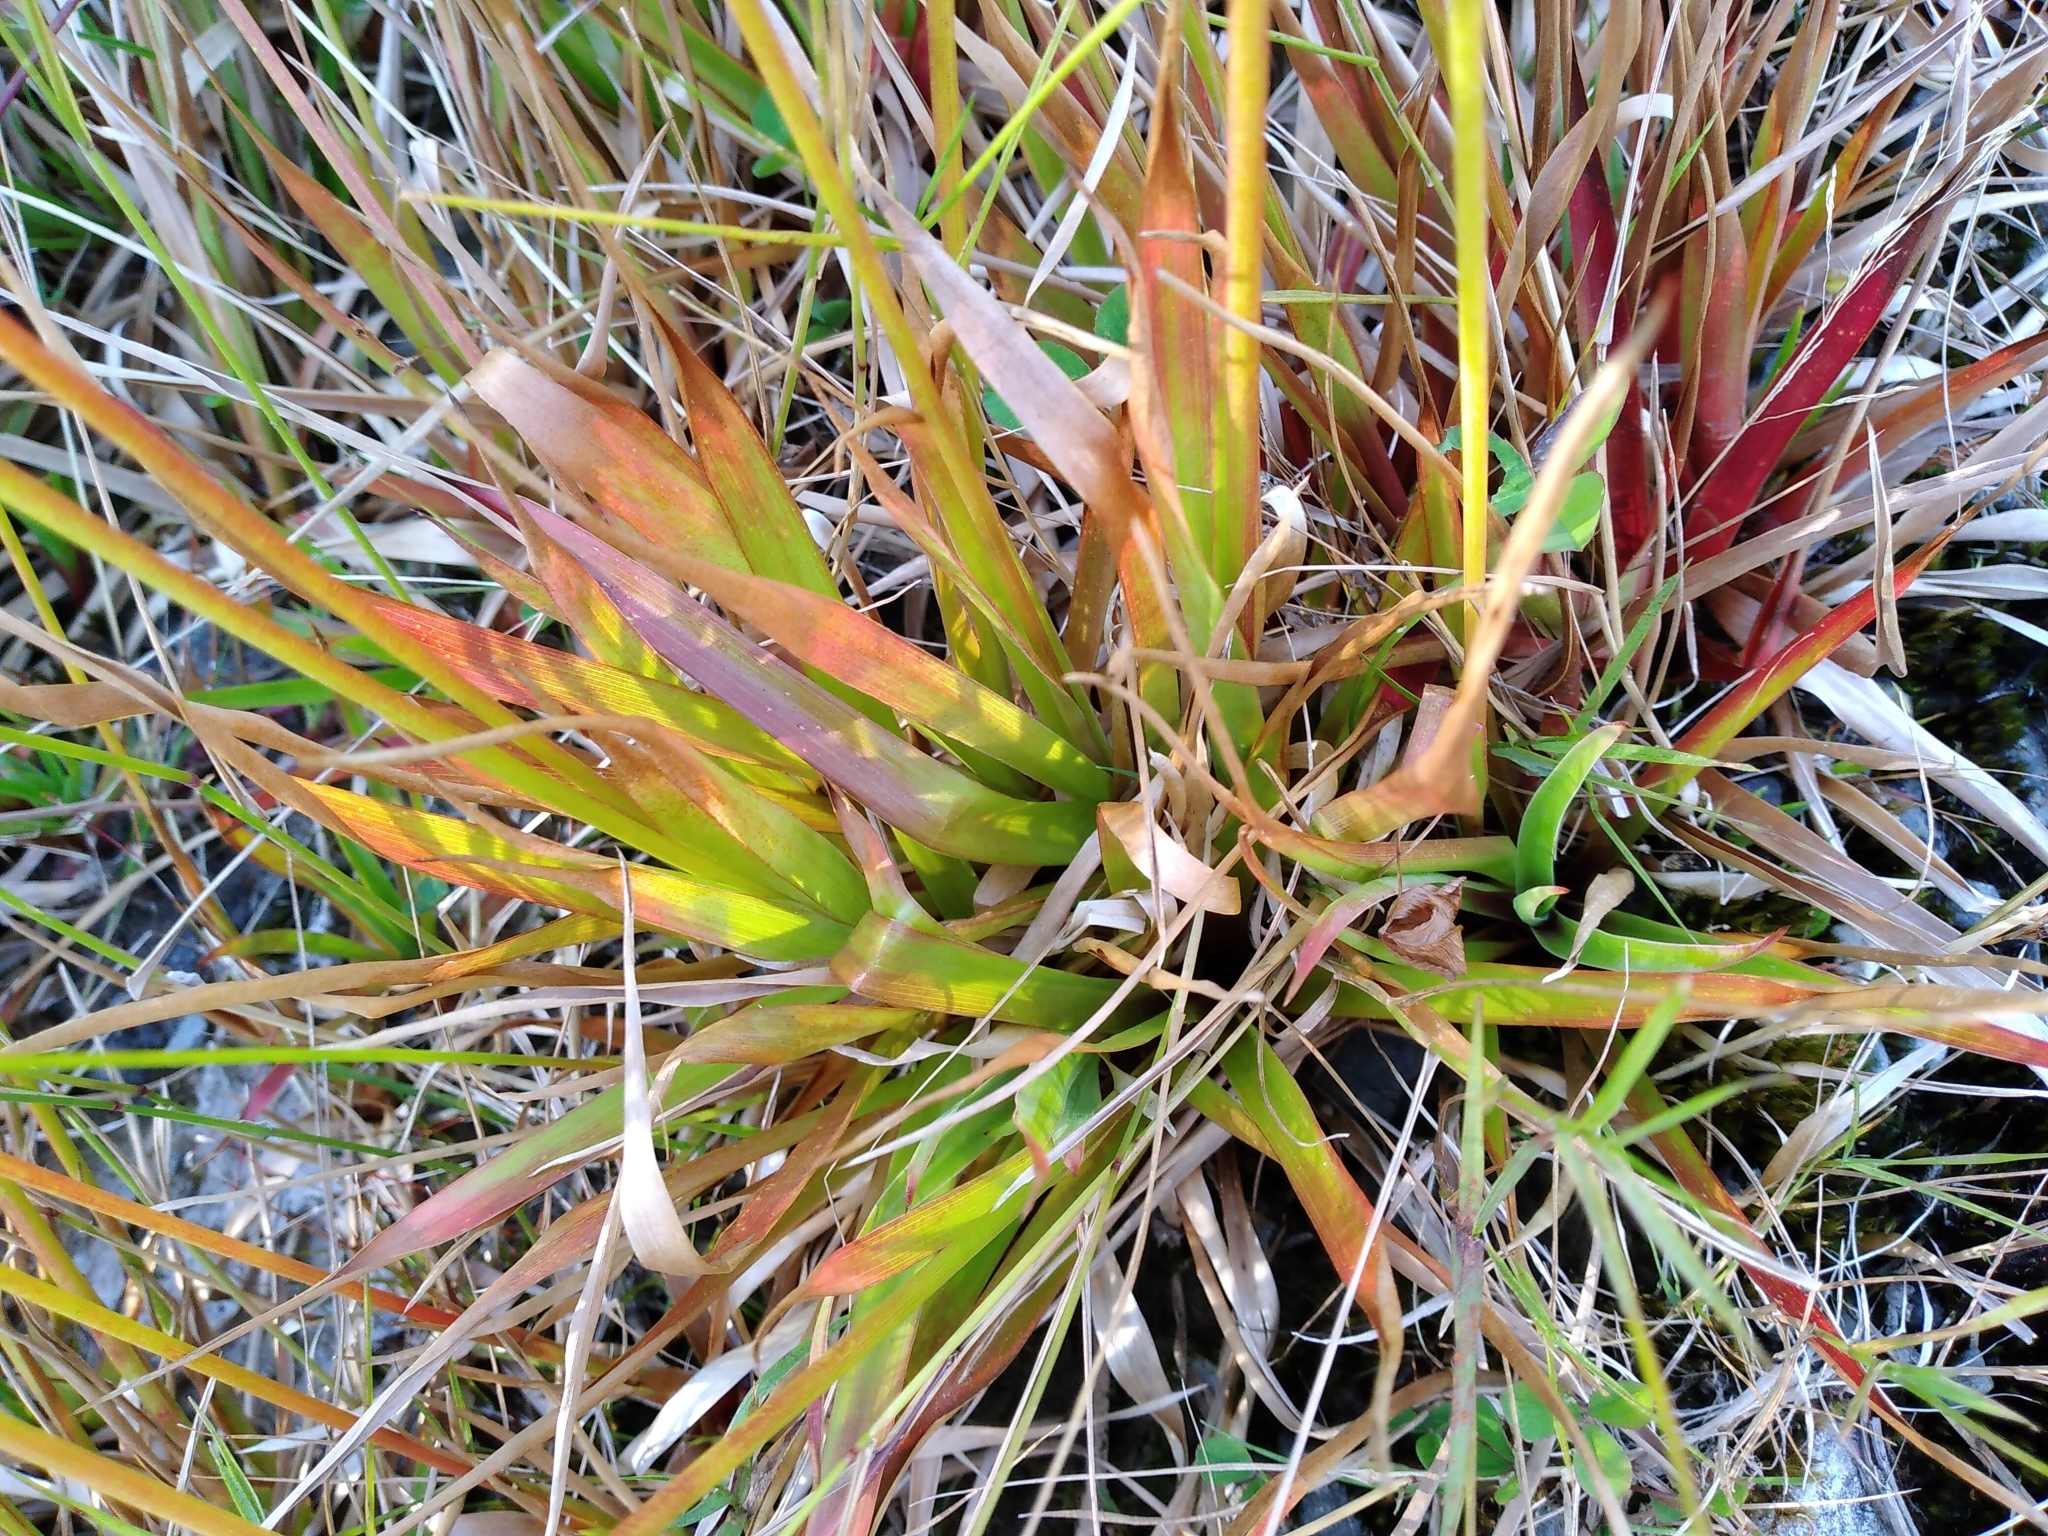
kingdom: Plantae
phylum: Tracheophyta
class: Liliopsida
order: Poales
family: Juncaceae
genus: Juncus
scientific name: Juncus lomatophyllus
